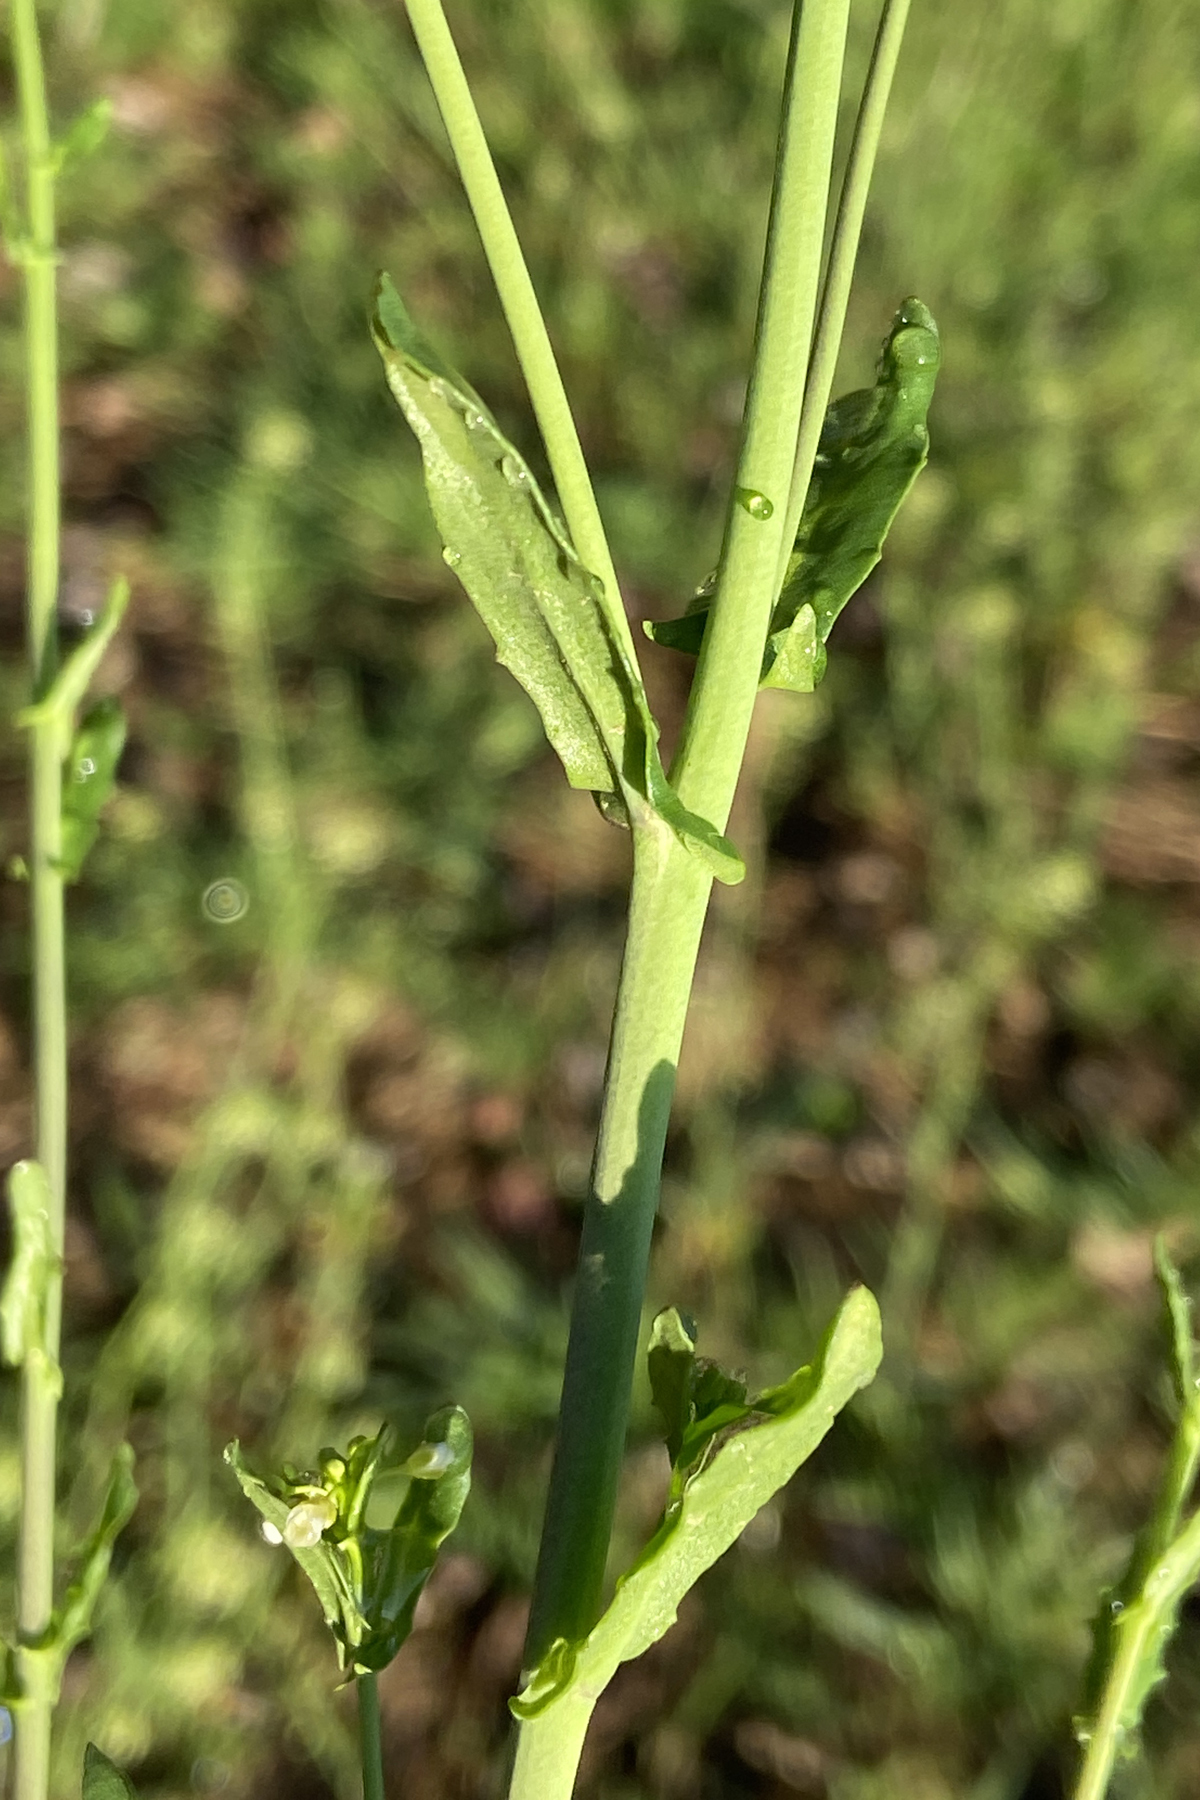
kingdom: Plantae
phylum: Tracheophyta
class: Magnoliopsida
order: Brassicales
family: Brassicaceae
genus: Mummenhoffia
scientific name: Mummenhoffia alliacea
